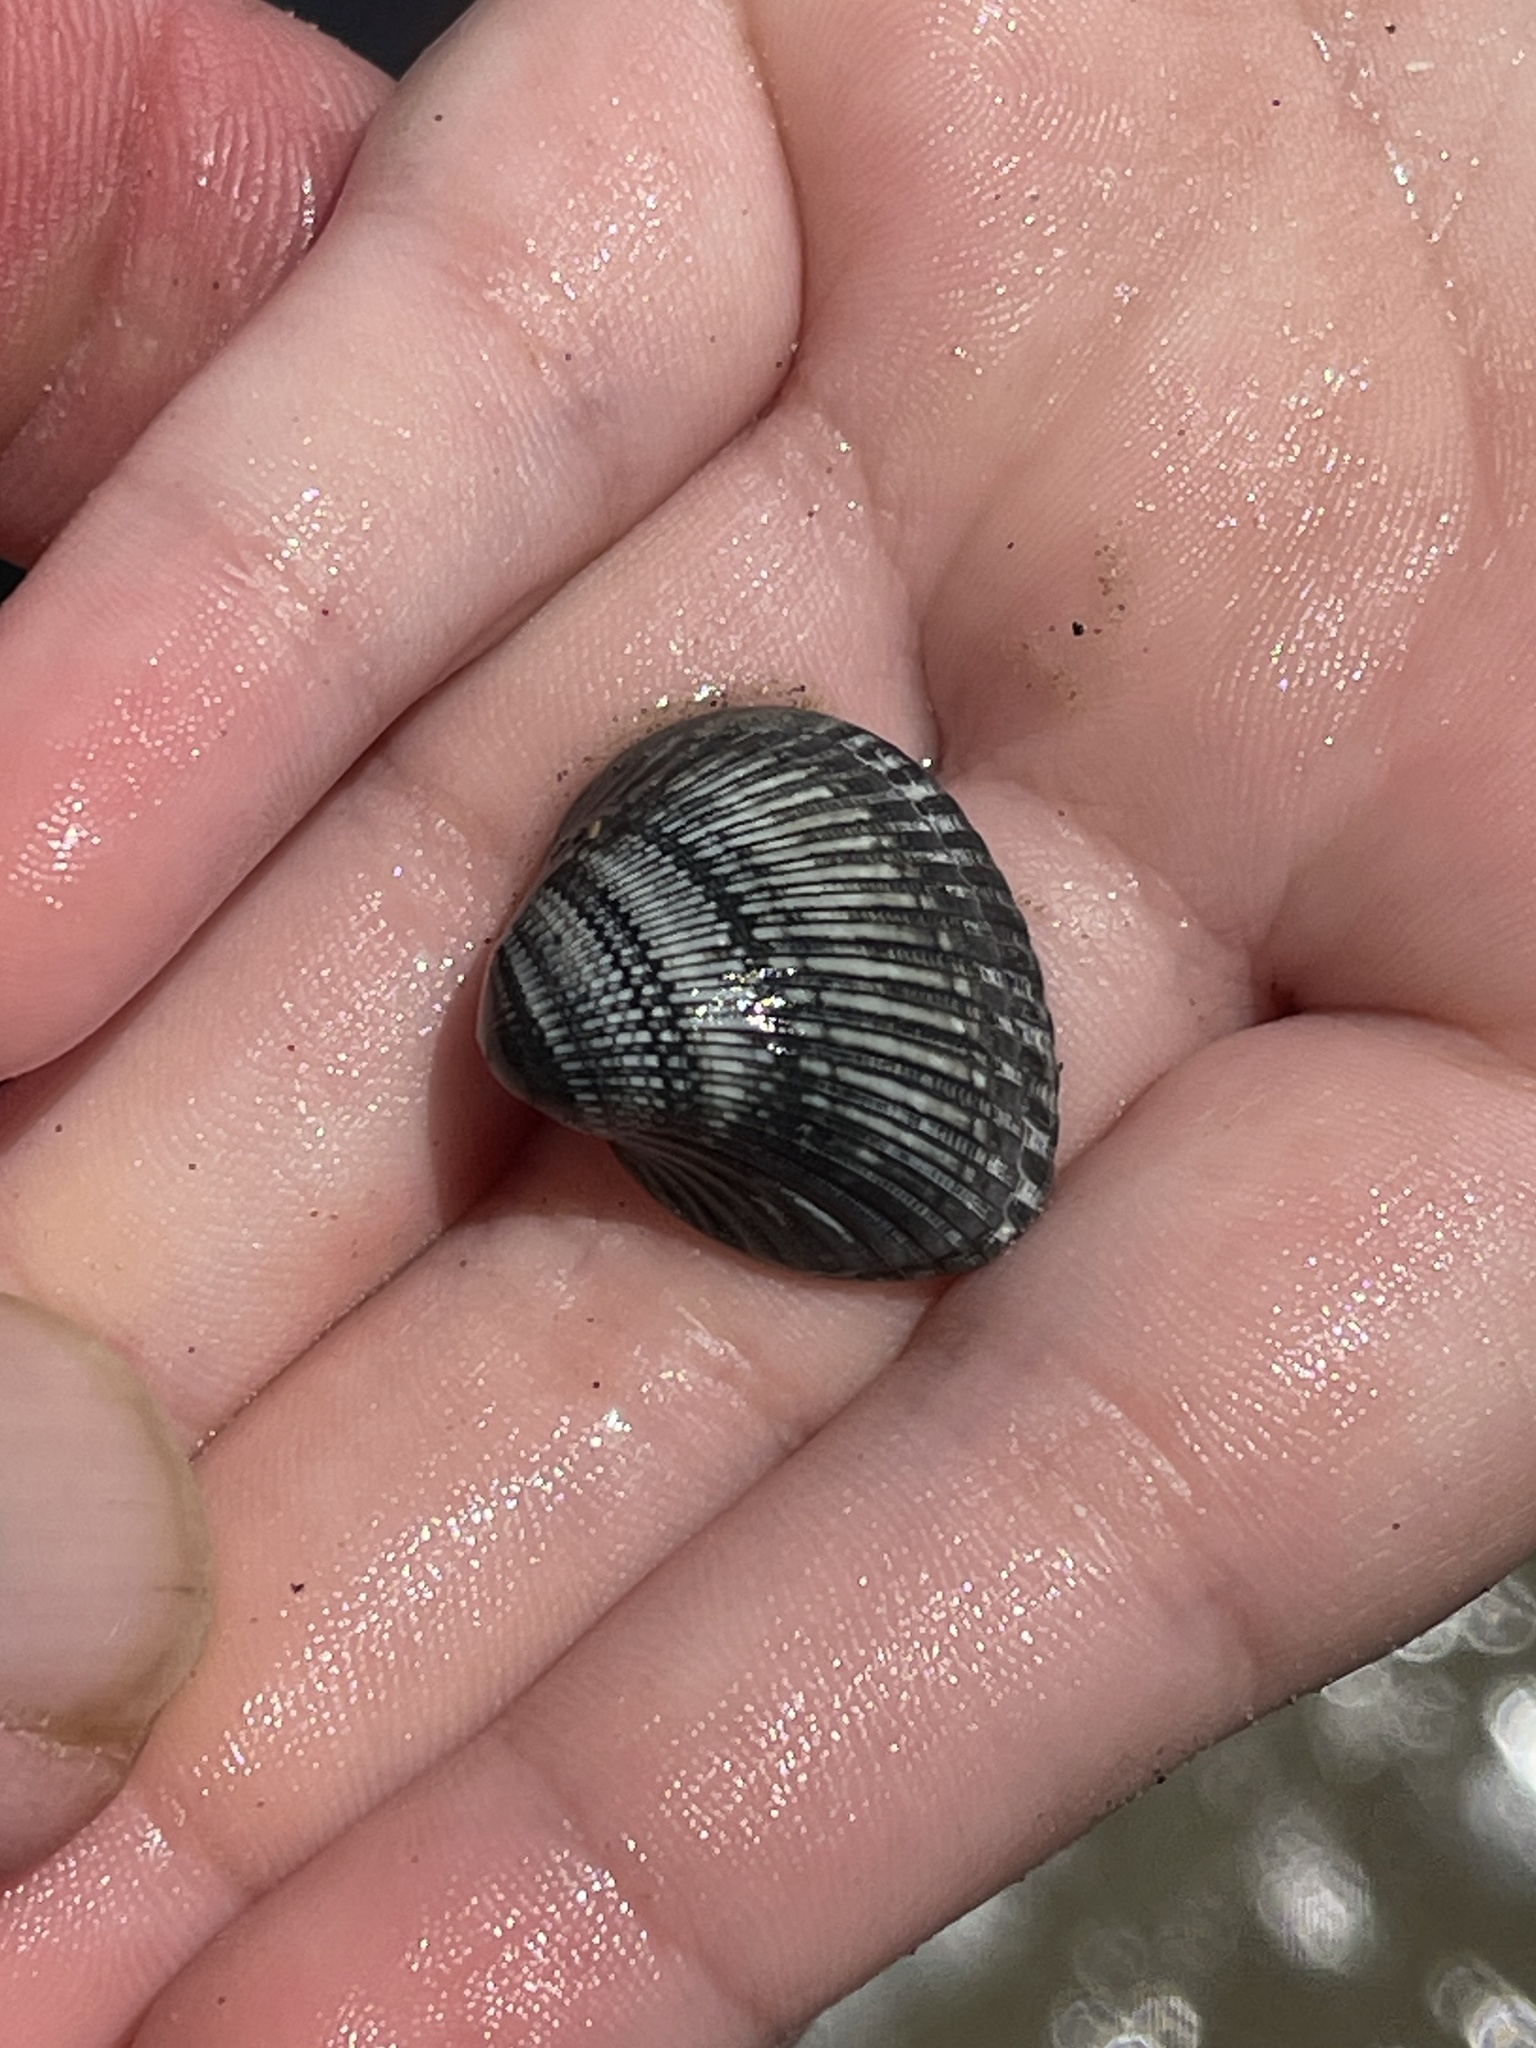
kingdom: Animalia
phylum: Mollusca
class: Bivalvia
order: Arcida
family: Noetiidae
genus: Noetia
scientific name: Noetia ponderosa
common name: Ponderous ark
